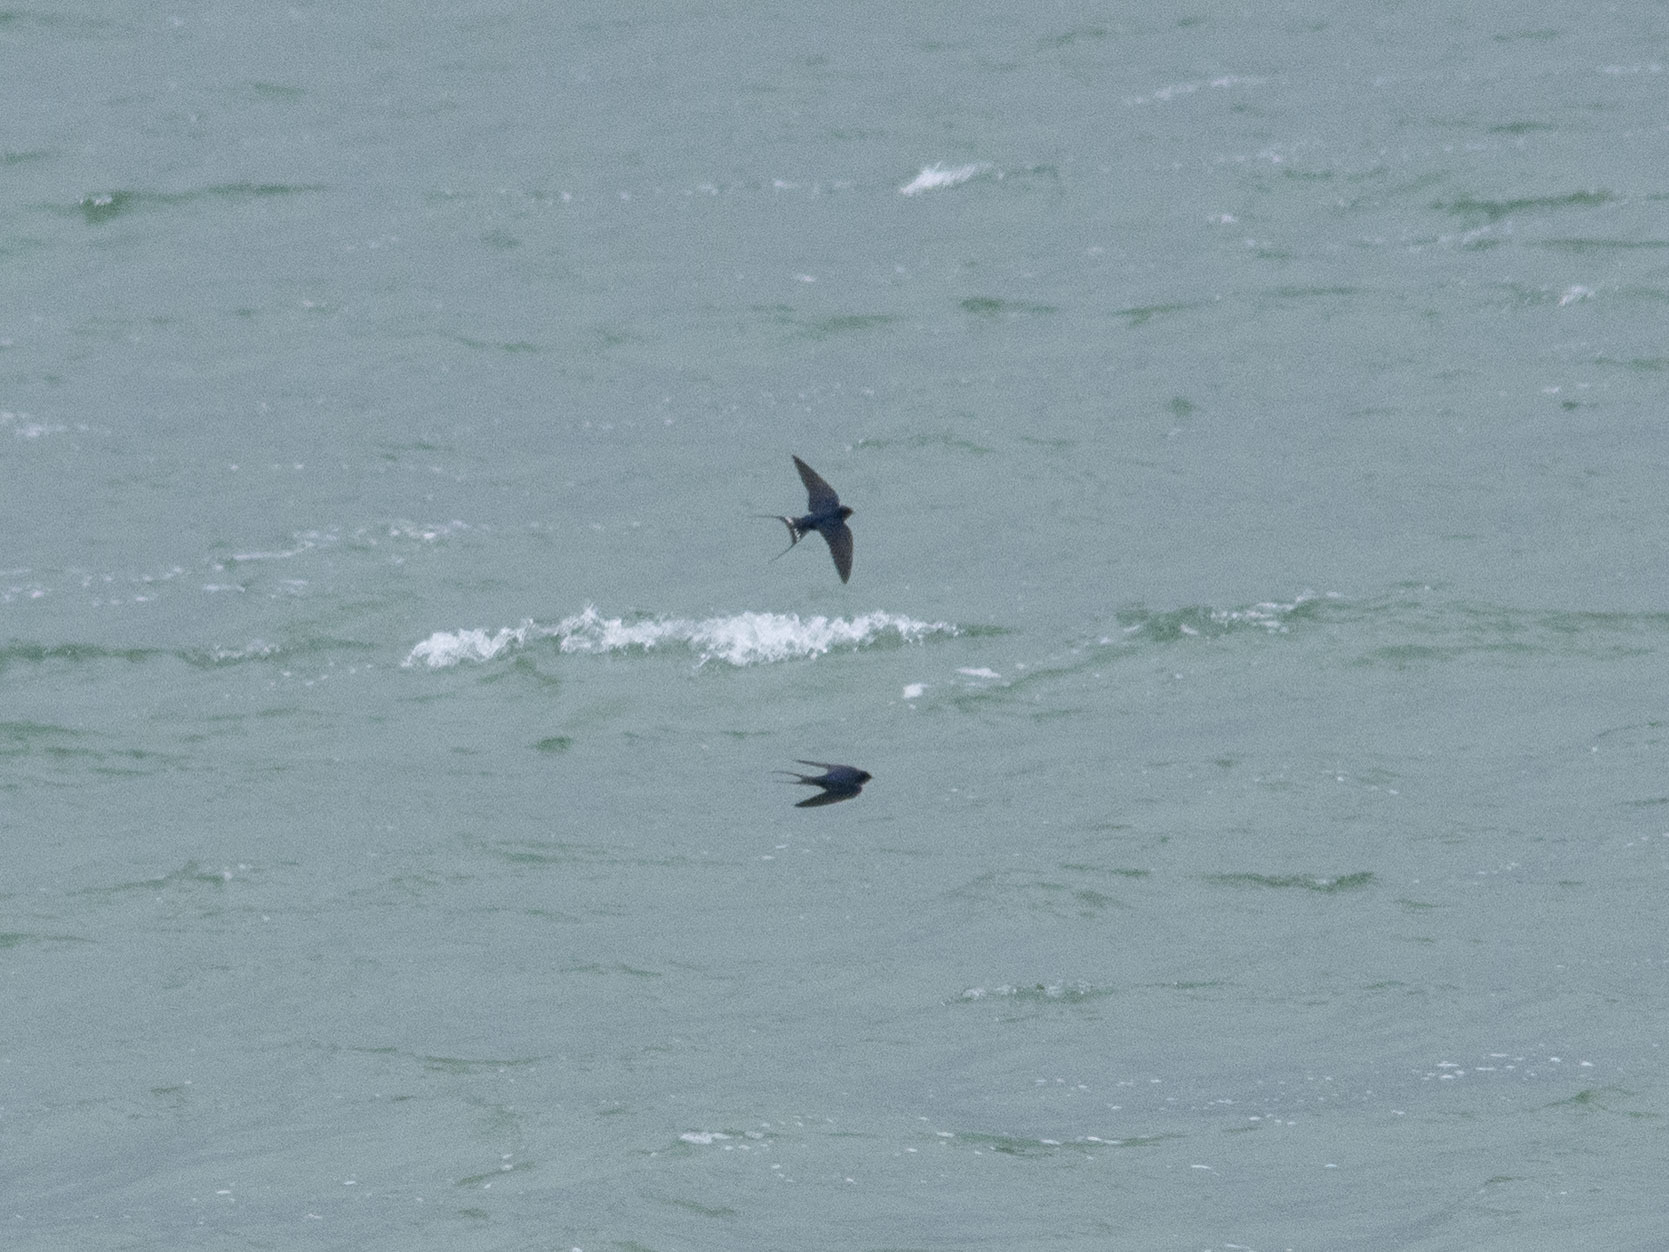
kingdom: Animalia
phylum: Chordata
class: Aves
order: Passeriformes
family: Hirundinidae
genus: Hirundo
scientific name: Hirundo rustica
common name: Barn swallow
